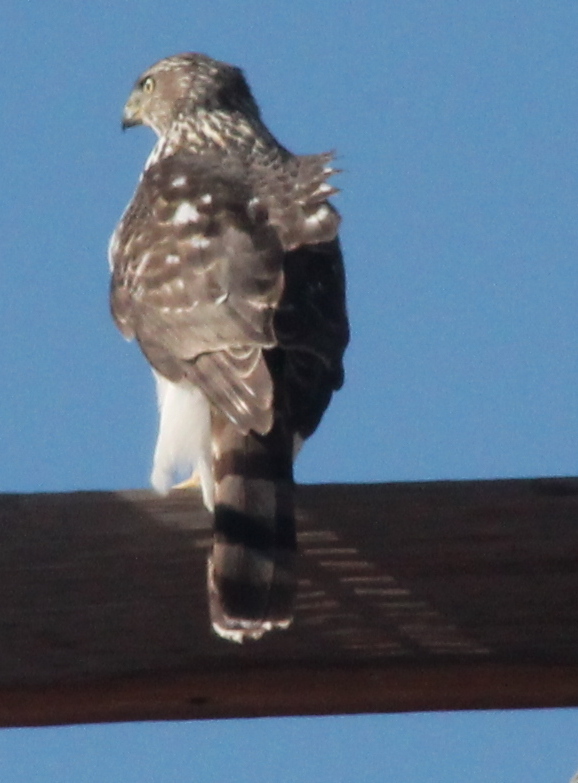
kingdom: Animalia
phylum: Chordata
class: Aves
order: Accipitriformes
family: Accipitridae
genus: Accipiter
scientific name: Accipiter cooperii
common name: Cooper's hawk
